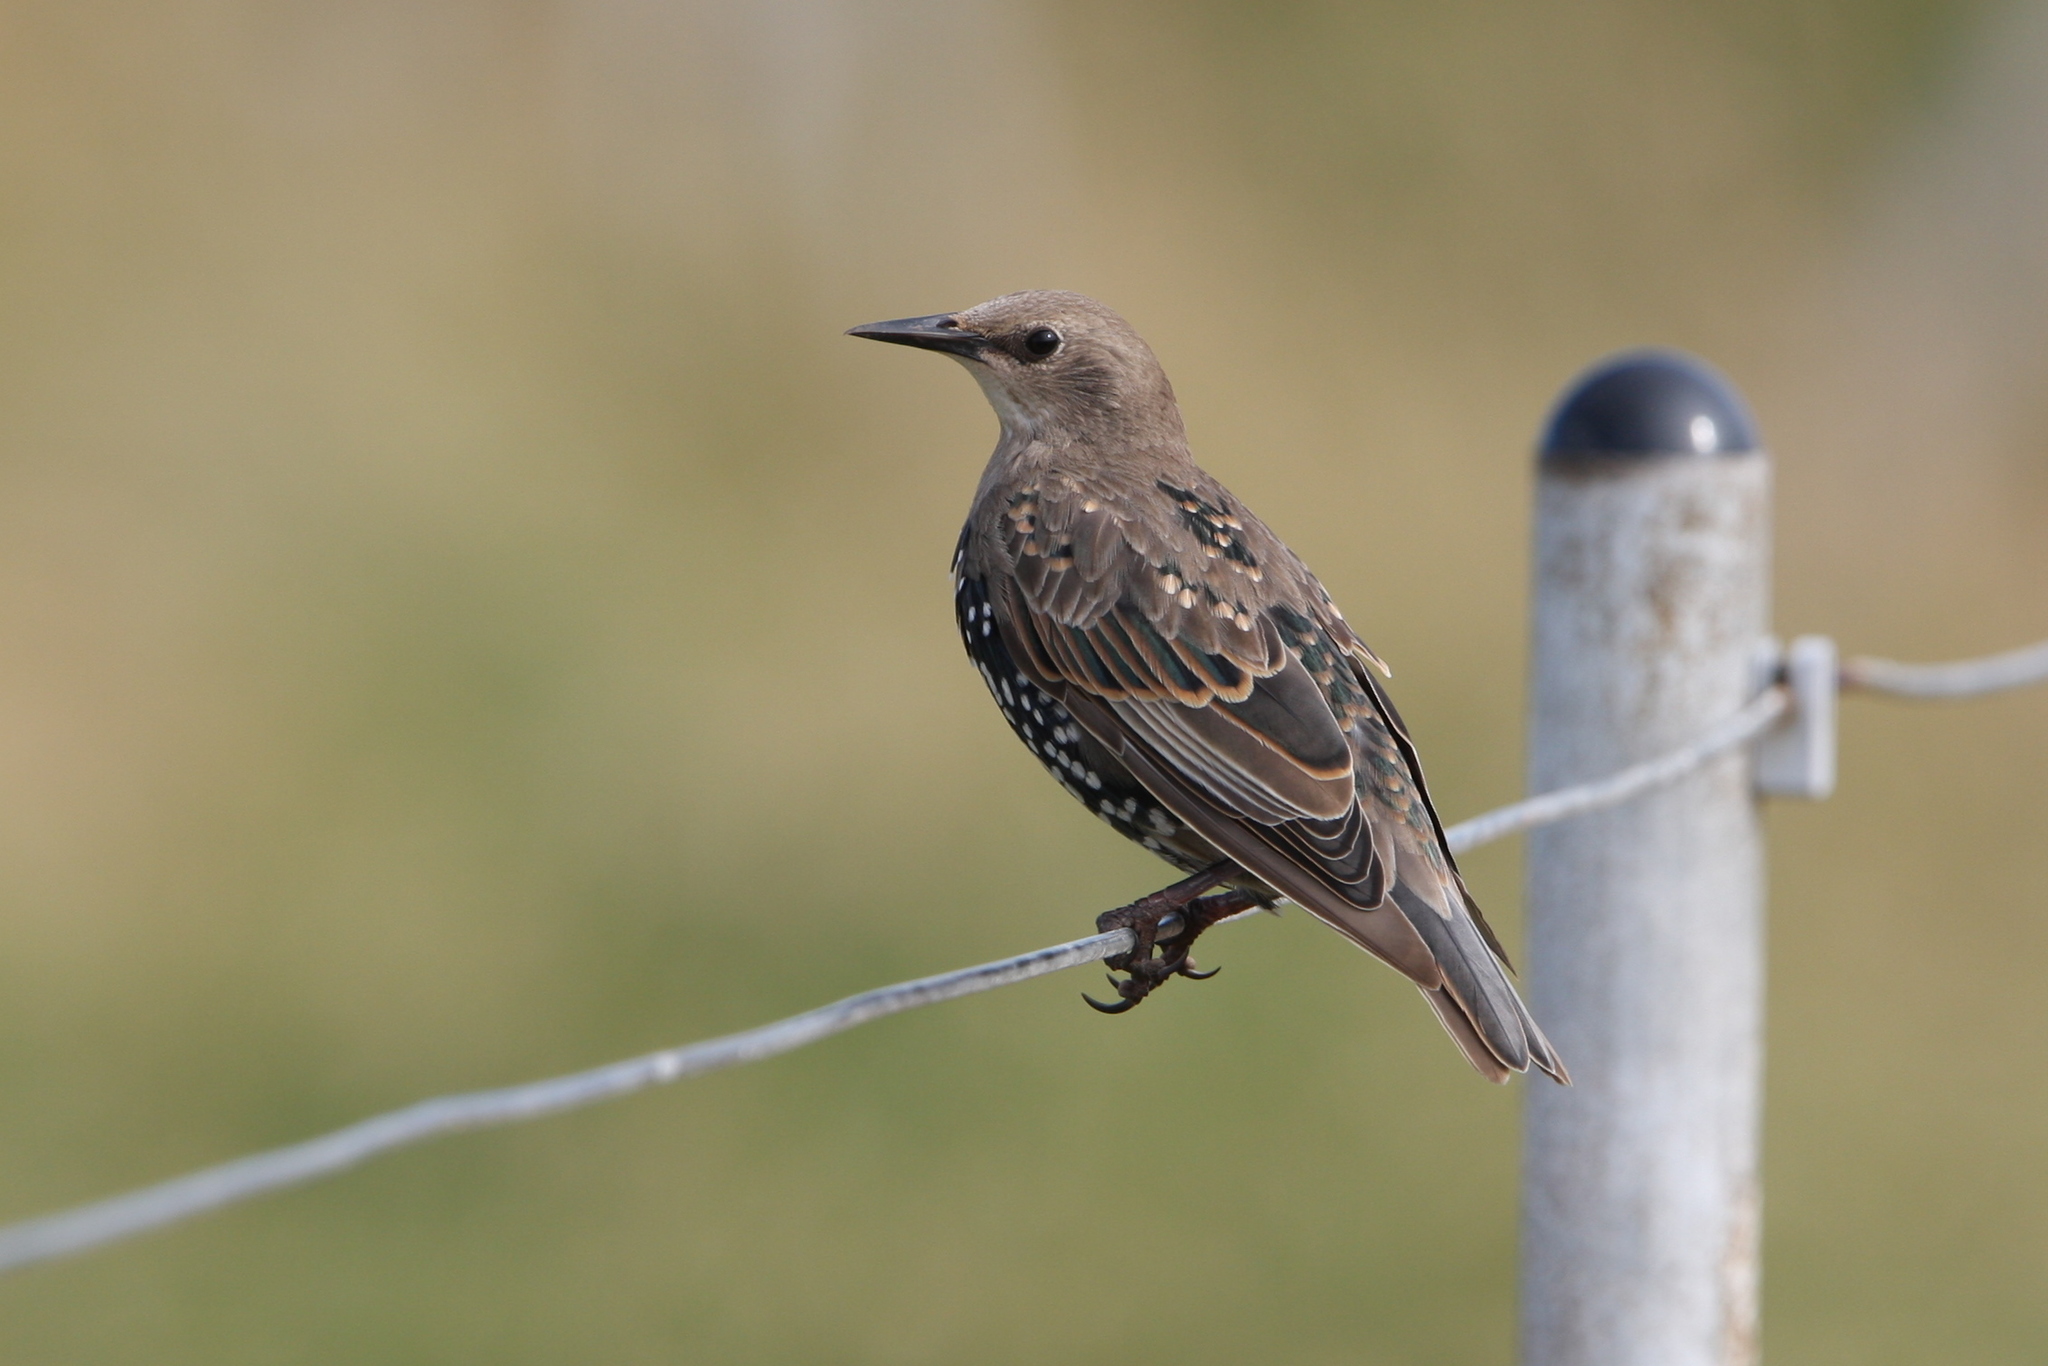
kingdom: Animalia
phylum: Chordata
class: Aves
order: Passeriformes
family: Sturnidae
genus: Sturnus
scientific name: Sturnus vulgaris
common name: Common starling
